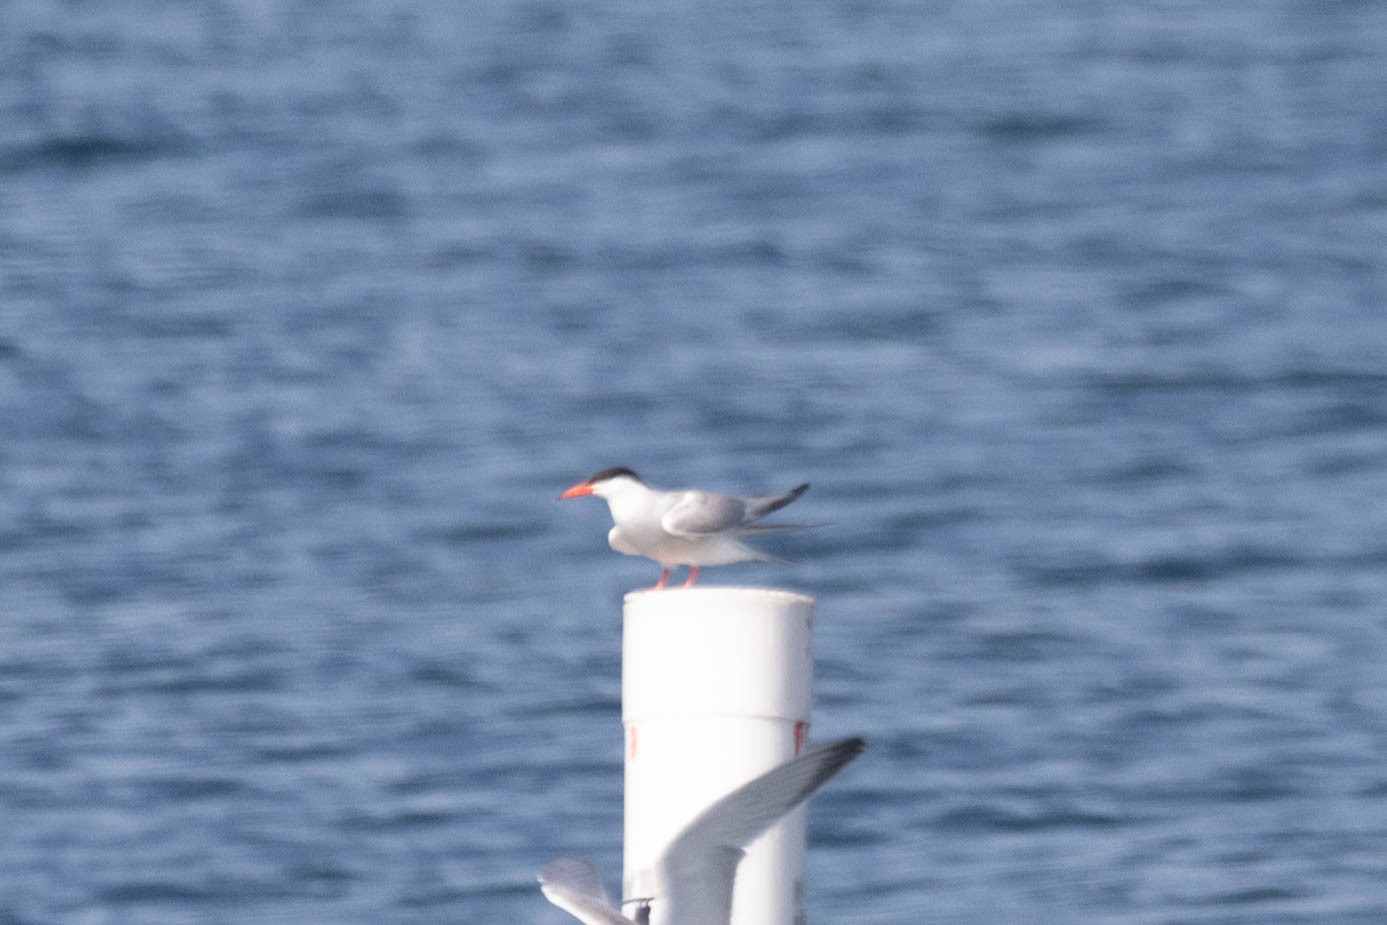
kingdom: Animalia
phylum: Chordata
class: Aves
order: Charadriiformes
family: Laridae
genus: Sterna
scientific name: Sterna hirundo
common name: Common tern
